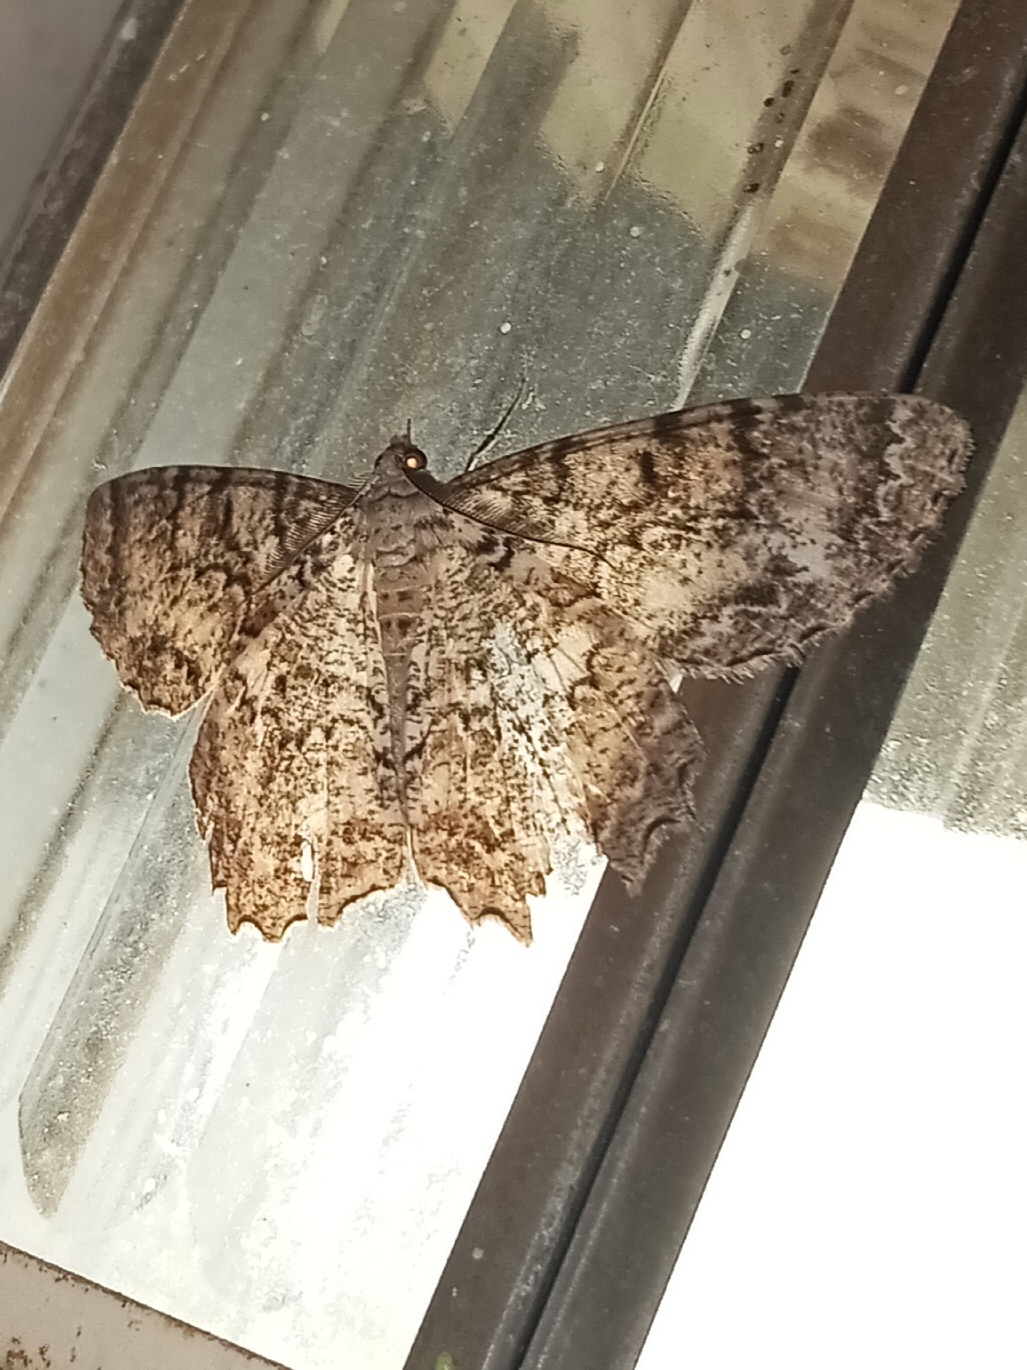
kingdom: Animalia
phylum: Arthropoda
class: Insecta
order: Lepidoptera
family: Geometridae
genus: Epimecis
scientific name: Epimecis hortaria
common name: Tulip-tree beauty
